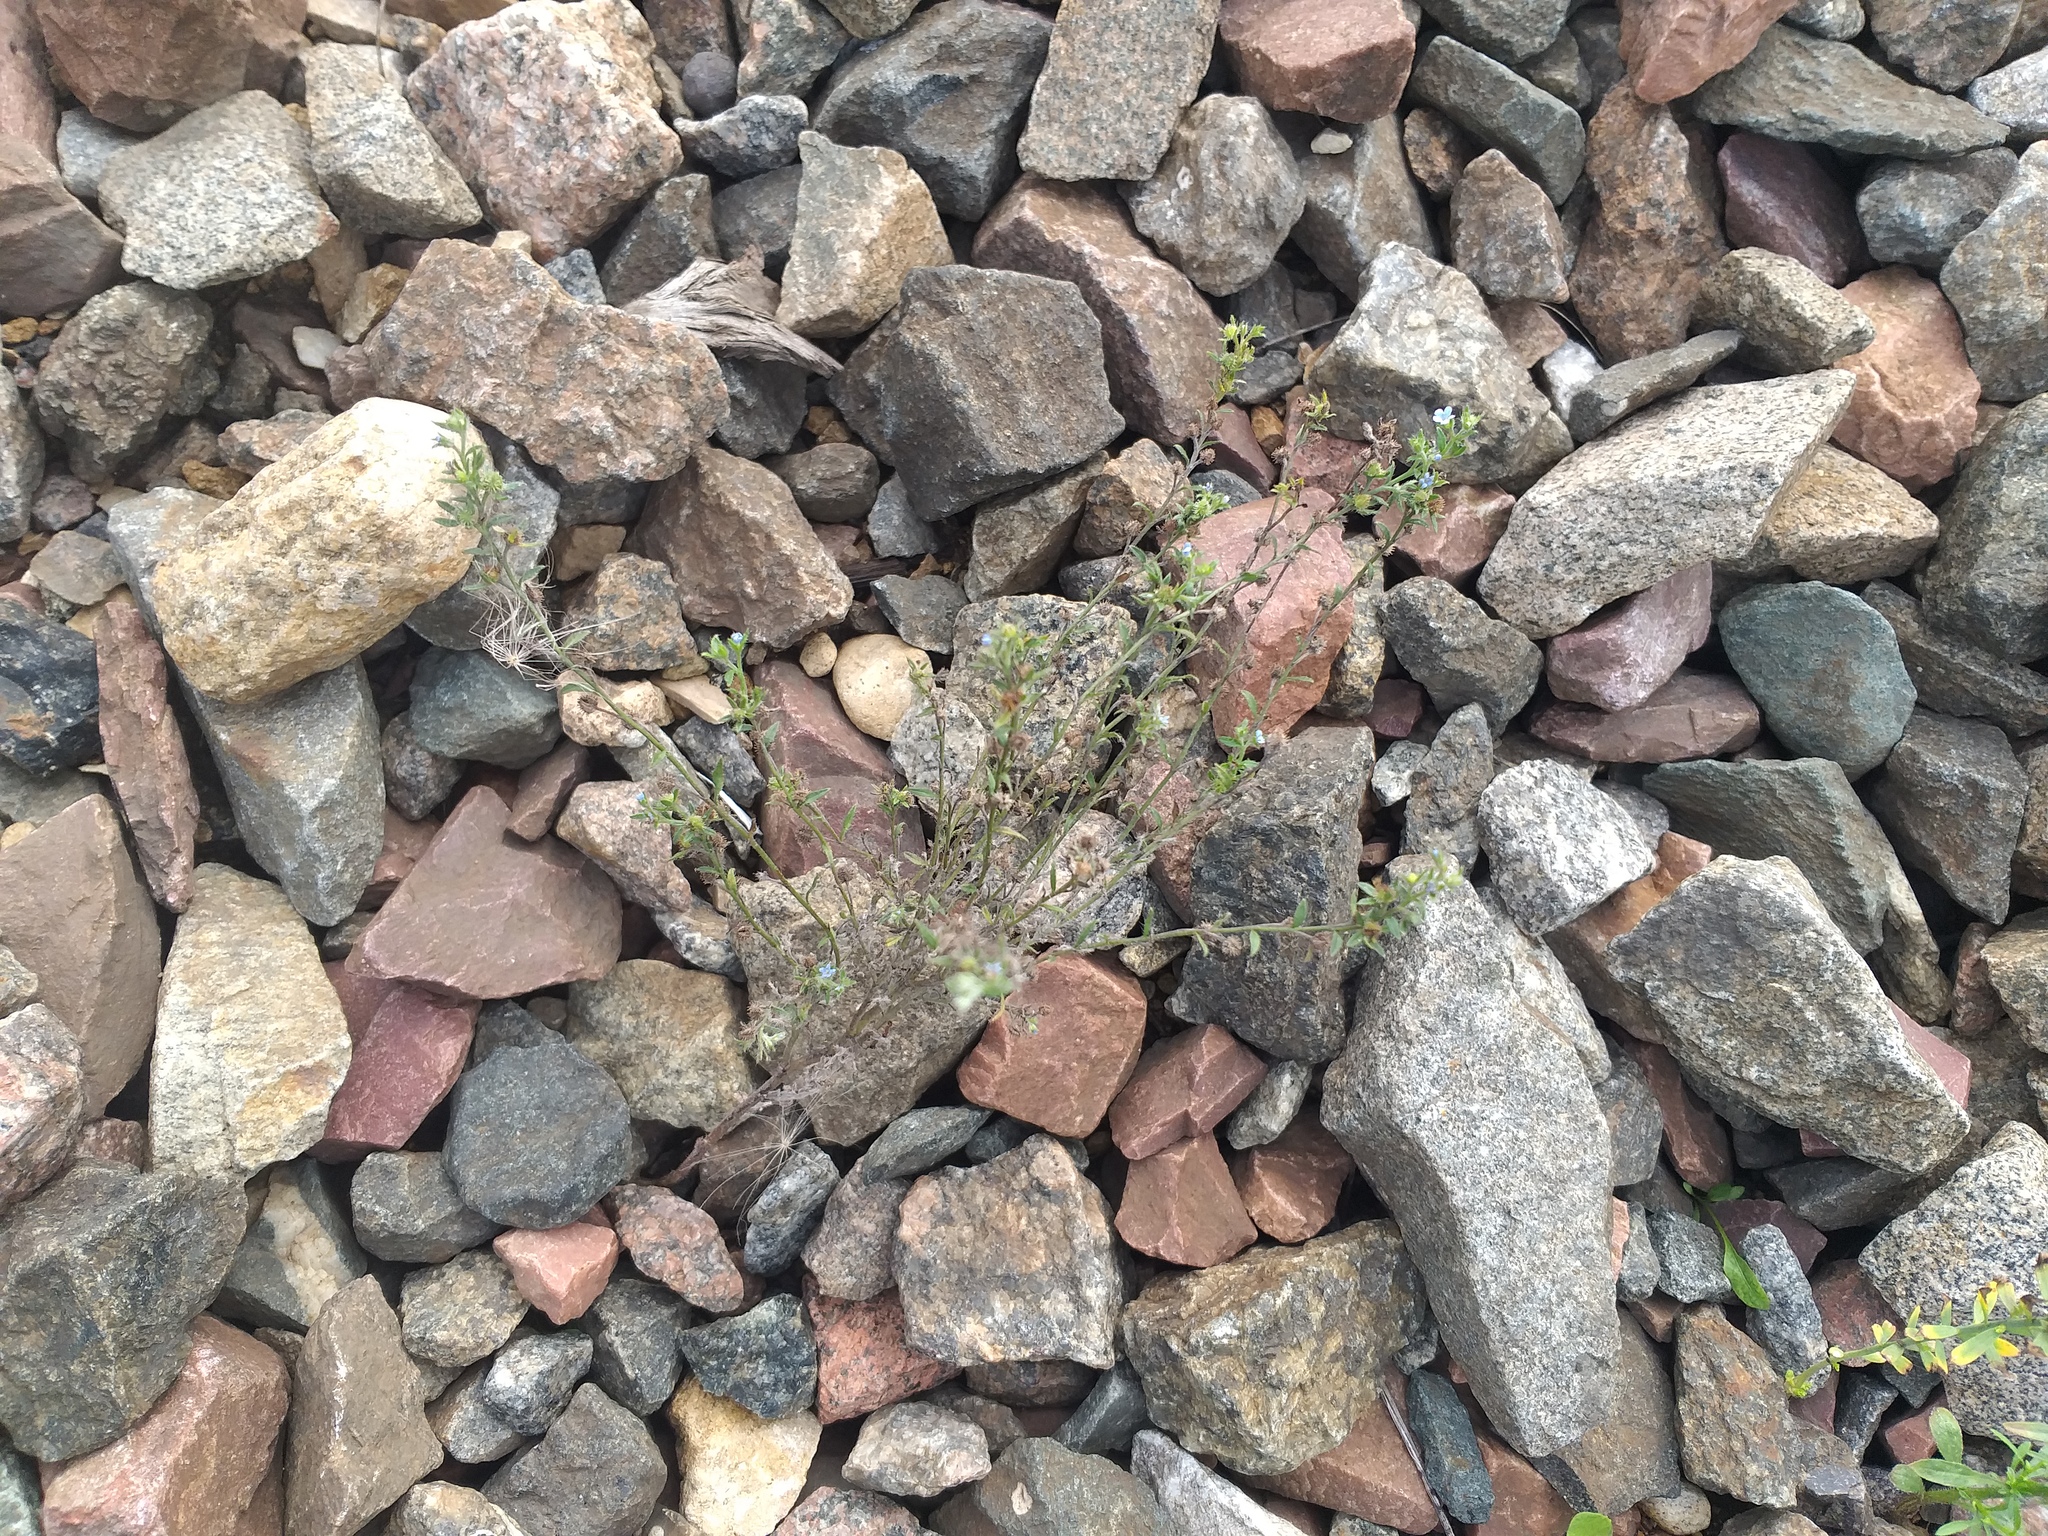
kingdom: Plantae
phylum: Tracheophyta
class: Magnoliopsida
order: Boraginales
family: Boraginaceae
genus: Lappula
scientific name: Lappula squarrosa
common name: European stickseed
